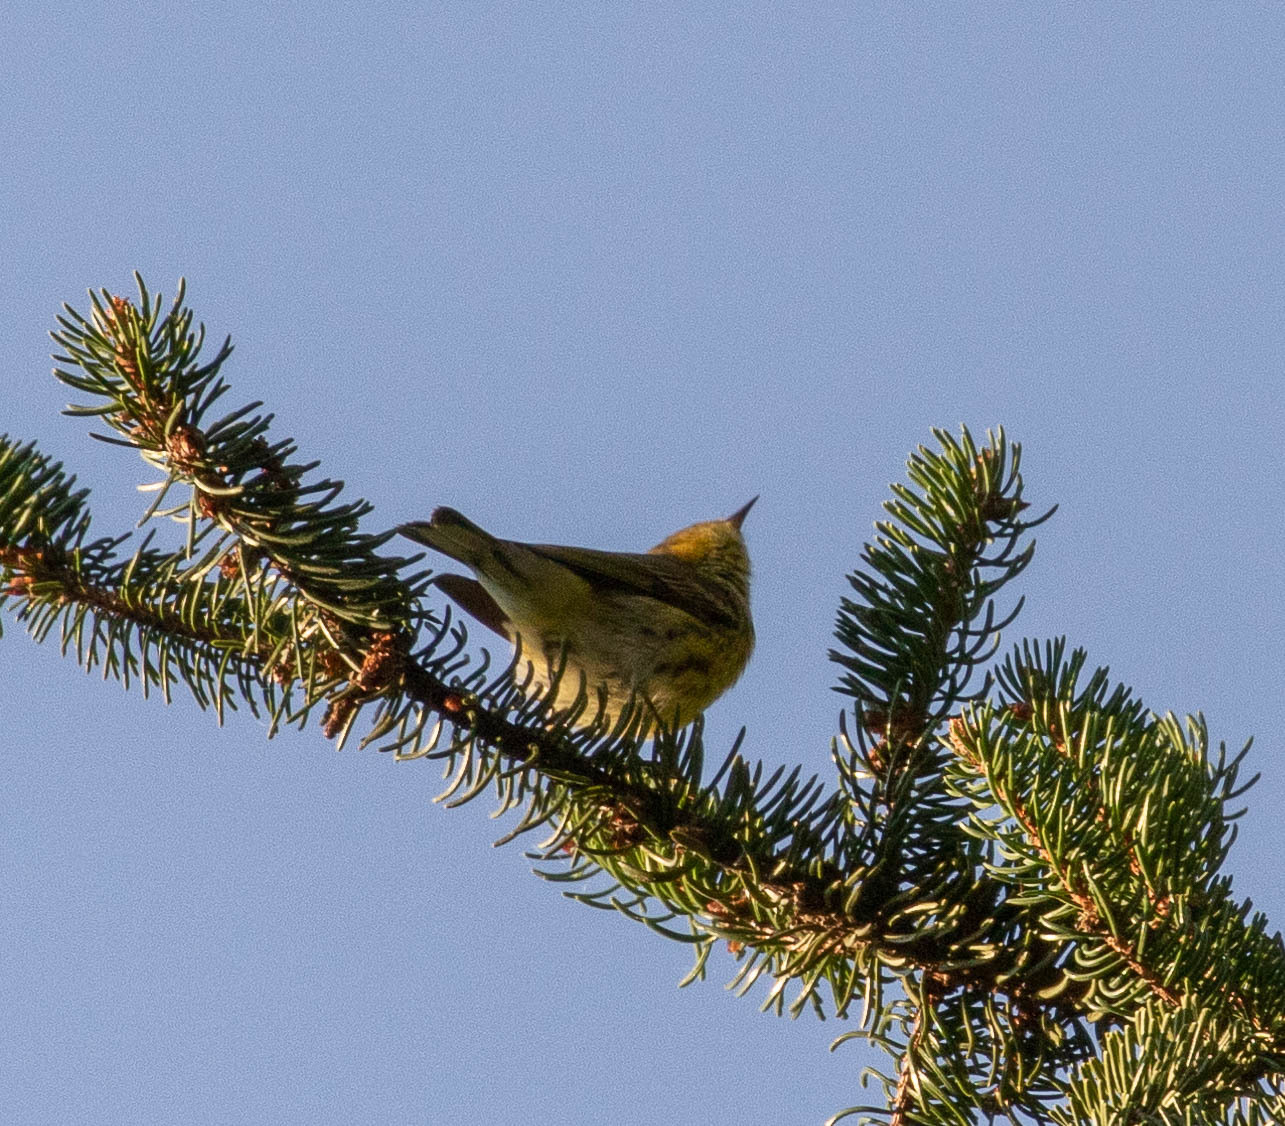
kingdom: Animalia
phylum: Chordata
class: Aves
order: Passeriformes
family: Parulidae
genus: Setophaga
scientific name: Setophaga tigrina
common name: Cape may warbler
